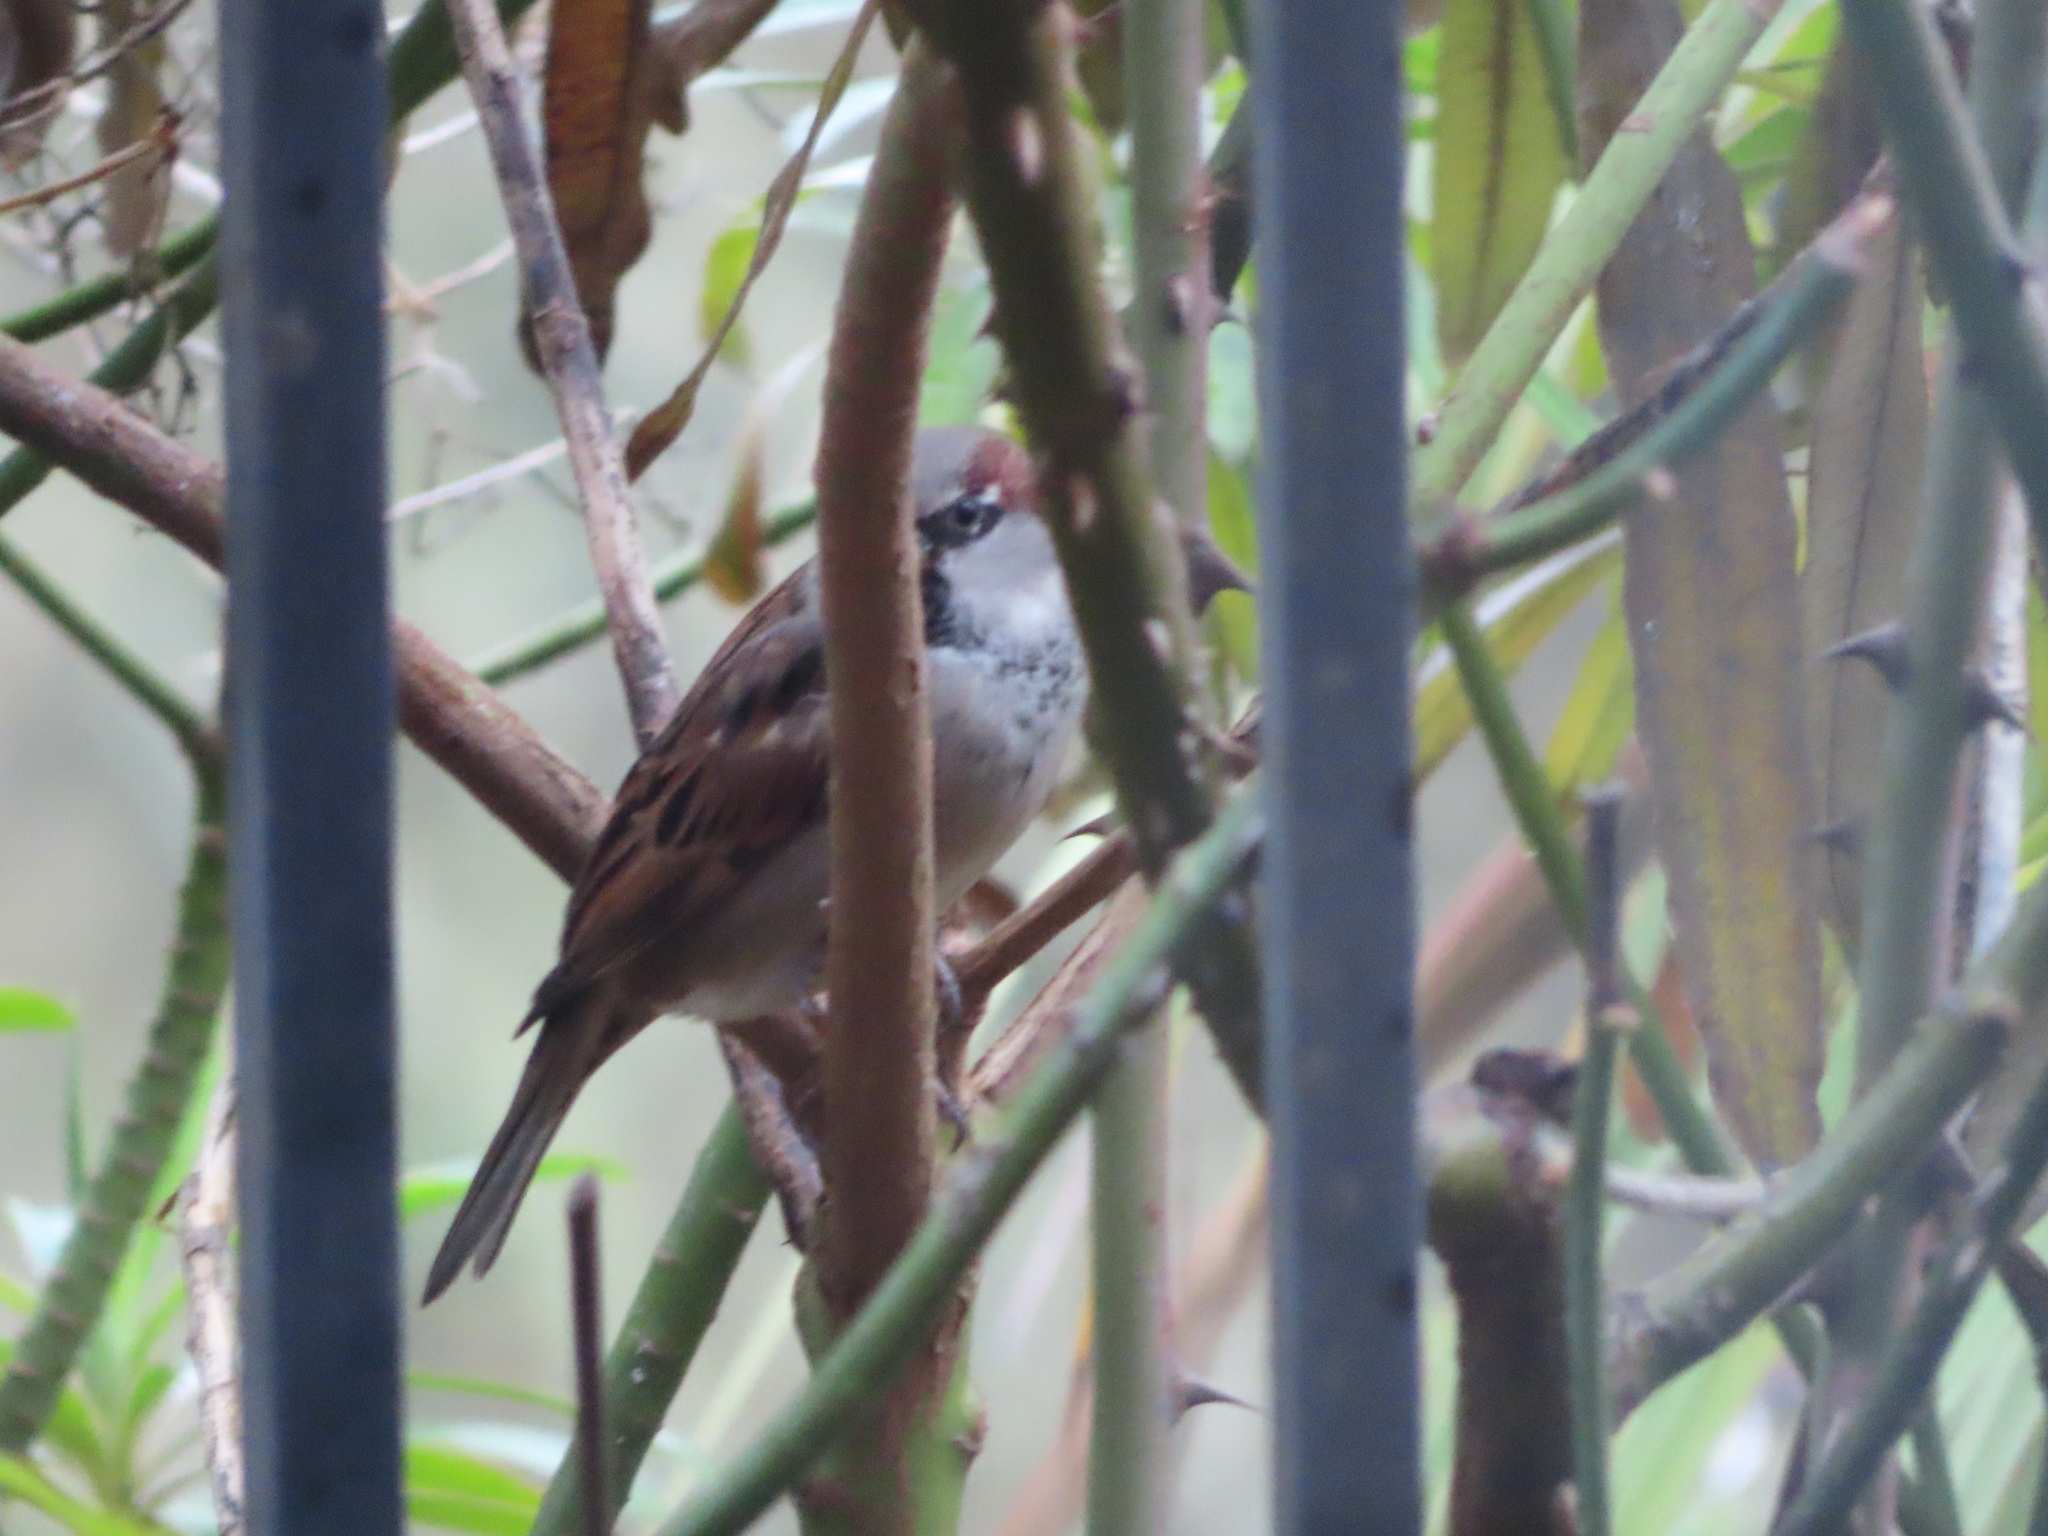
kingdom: Animalia
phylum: Chordata
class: Aves
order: Passeriformes
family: Passeridae
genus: Passer
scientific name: Passer domesticus
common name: House sparrow
